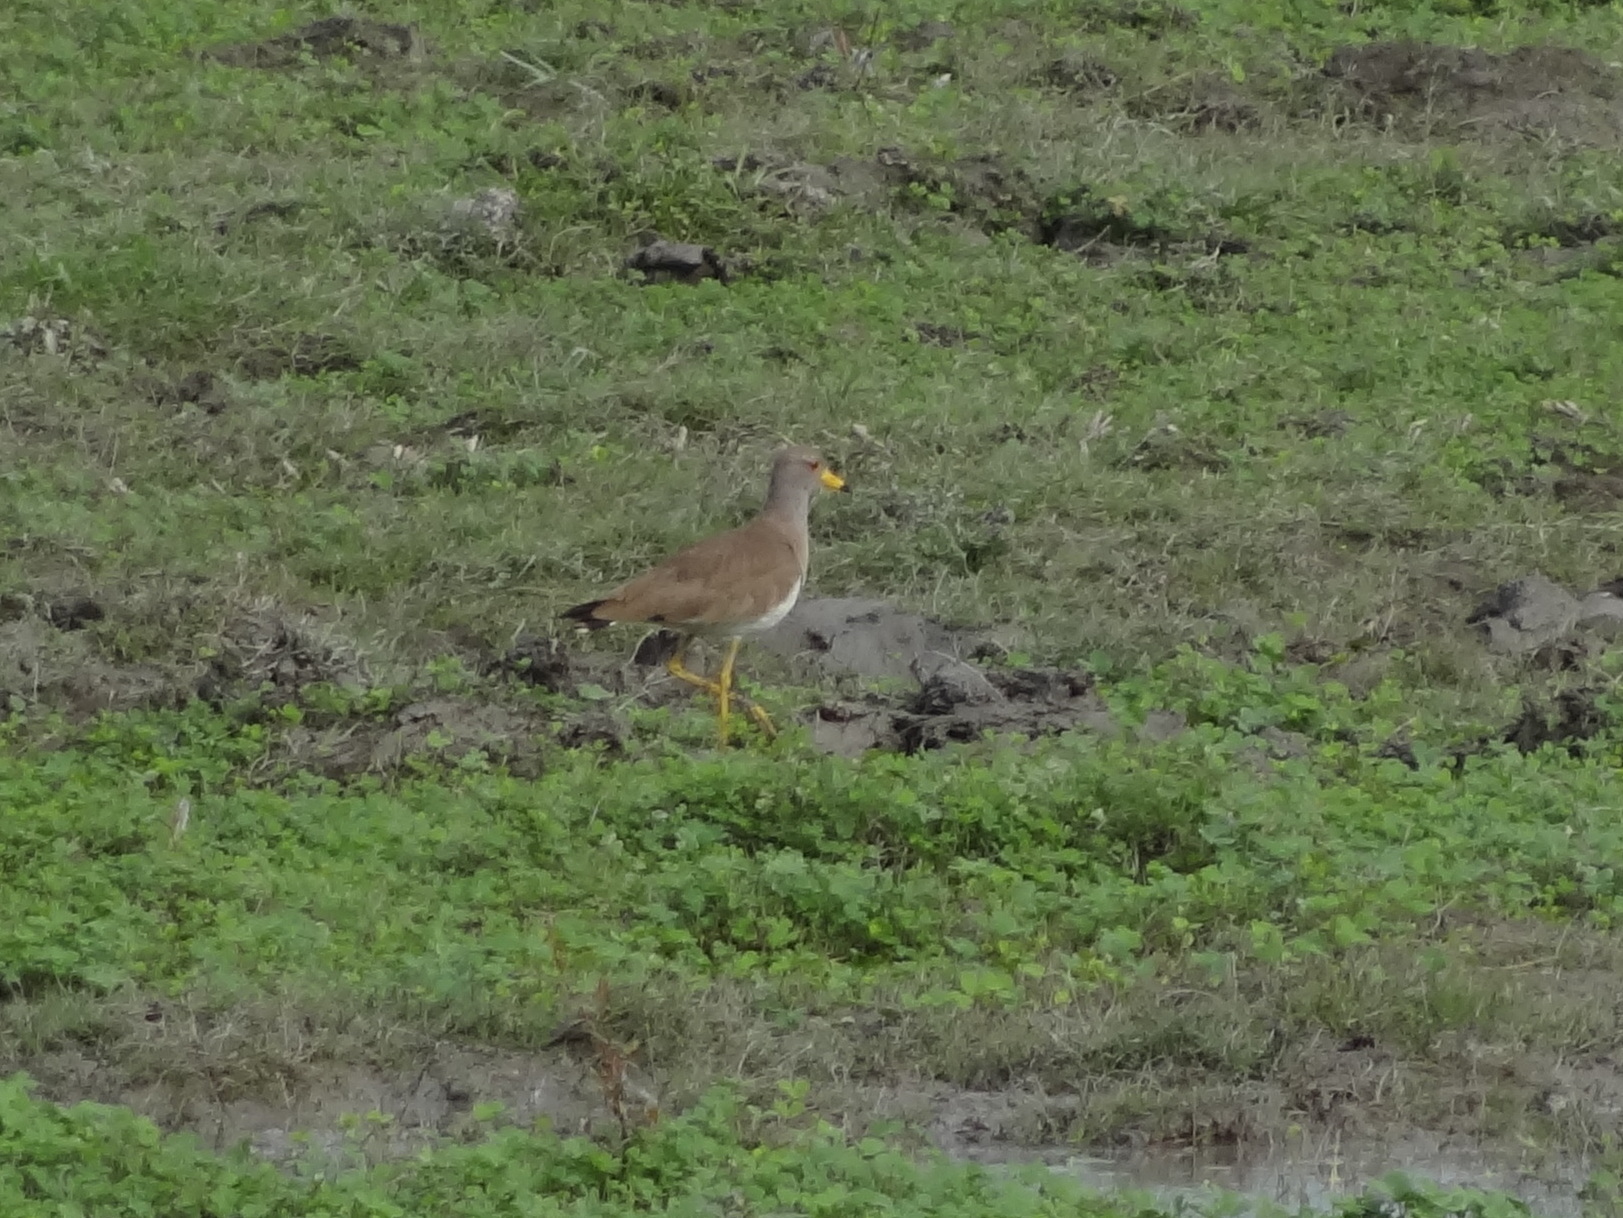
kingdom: Animalia
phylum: Chordata
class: Aves
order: Charadriiformes
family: Charadriidae
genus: Vanellus
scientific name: Vanellus cinereus
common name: Grey-headed lapwing
